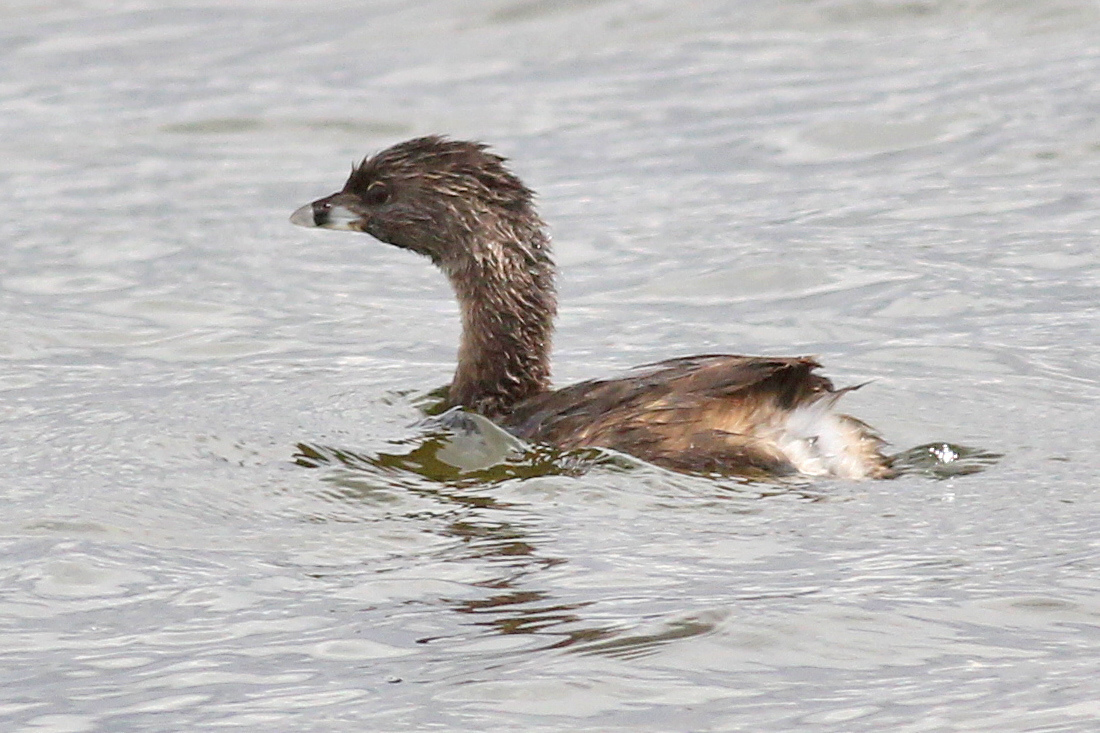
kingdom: Animalia
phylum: Chordata
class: Aves
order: Podicipediformes
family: Podicipedidae
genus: Podilymbus
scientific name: Podilymbus podiceps
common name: Pied-billed grebe
